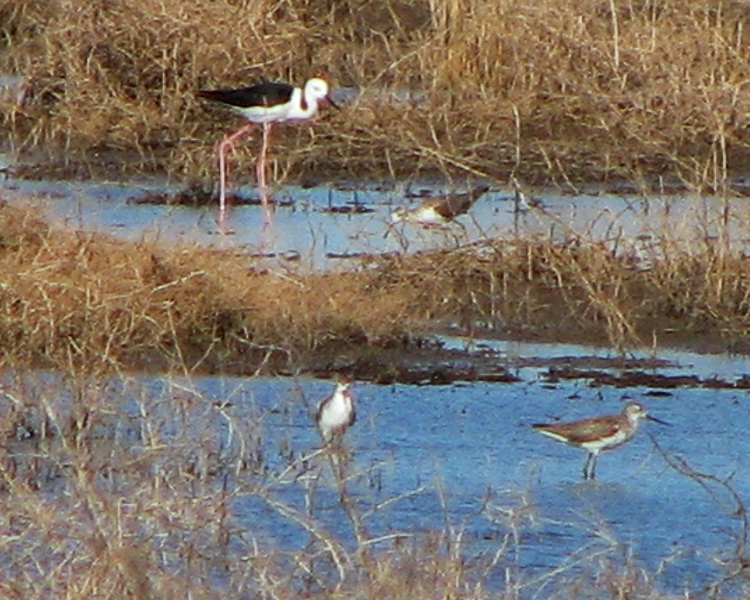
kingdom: Animalia
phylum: Chordata
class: Aves
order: Charadriiformes
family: Scolopacidae
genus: Tringa
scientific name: Tringa stagnatilis
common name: Marsh sandpiper
